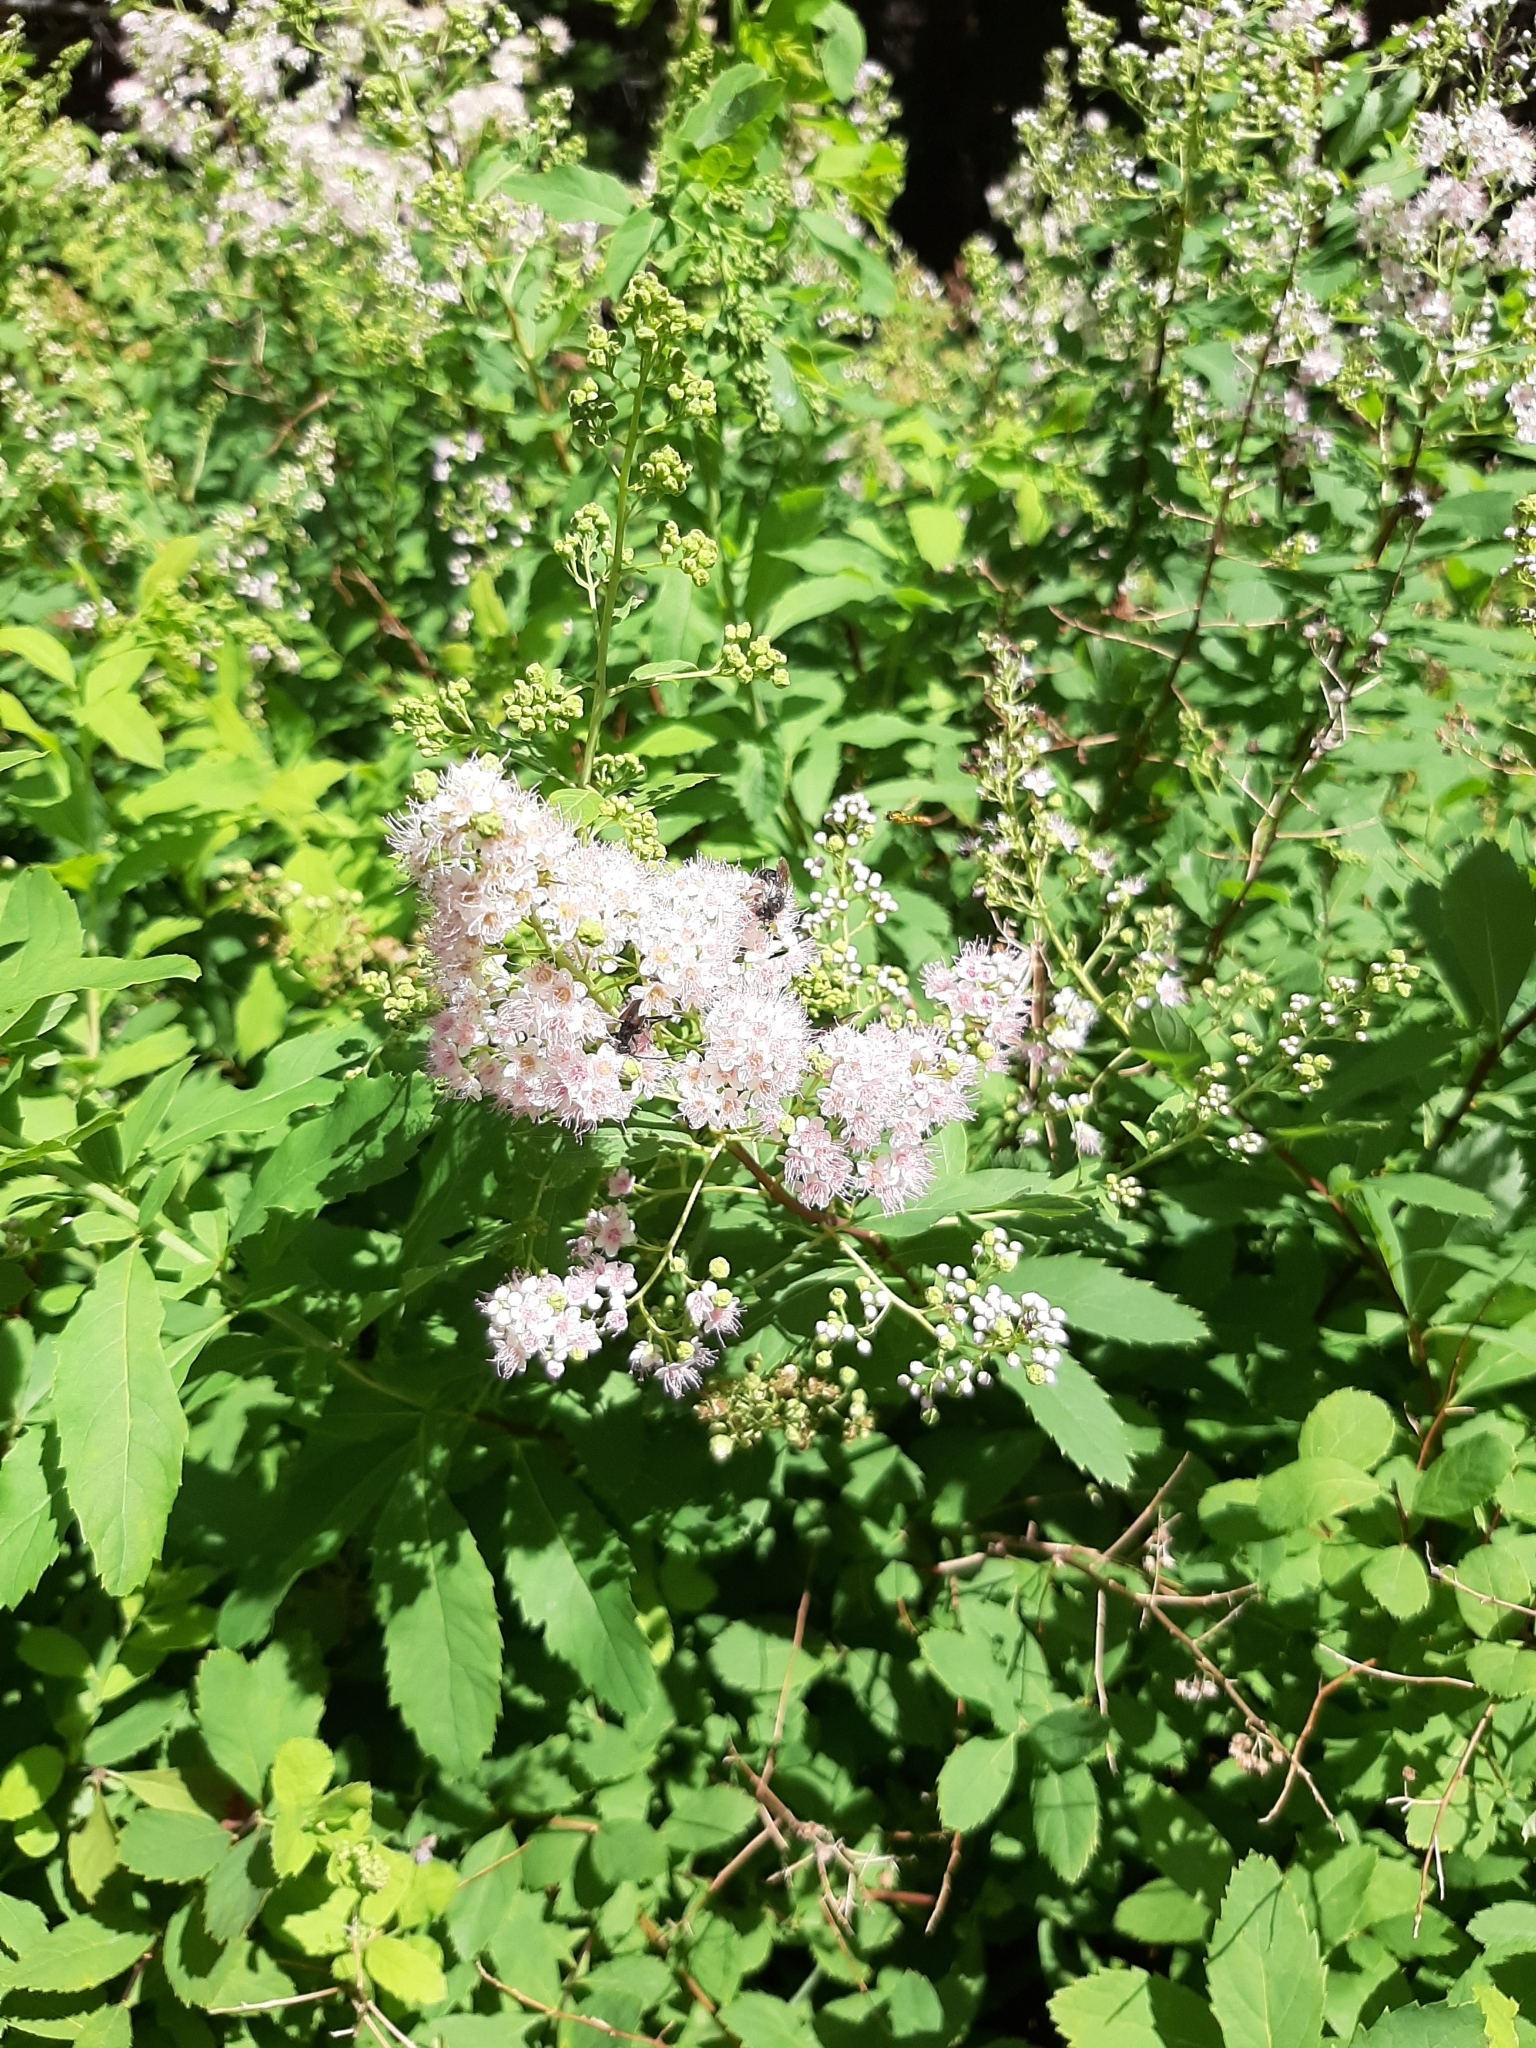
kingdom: Plantae
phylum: Tracheophyta
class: Magnoliopsida
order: Rosales
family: Rosaceae
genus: Spiraea
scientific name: Spiraea alba
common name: Pale bridewort
